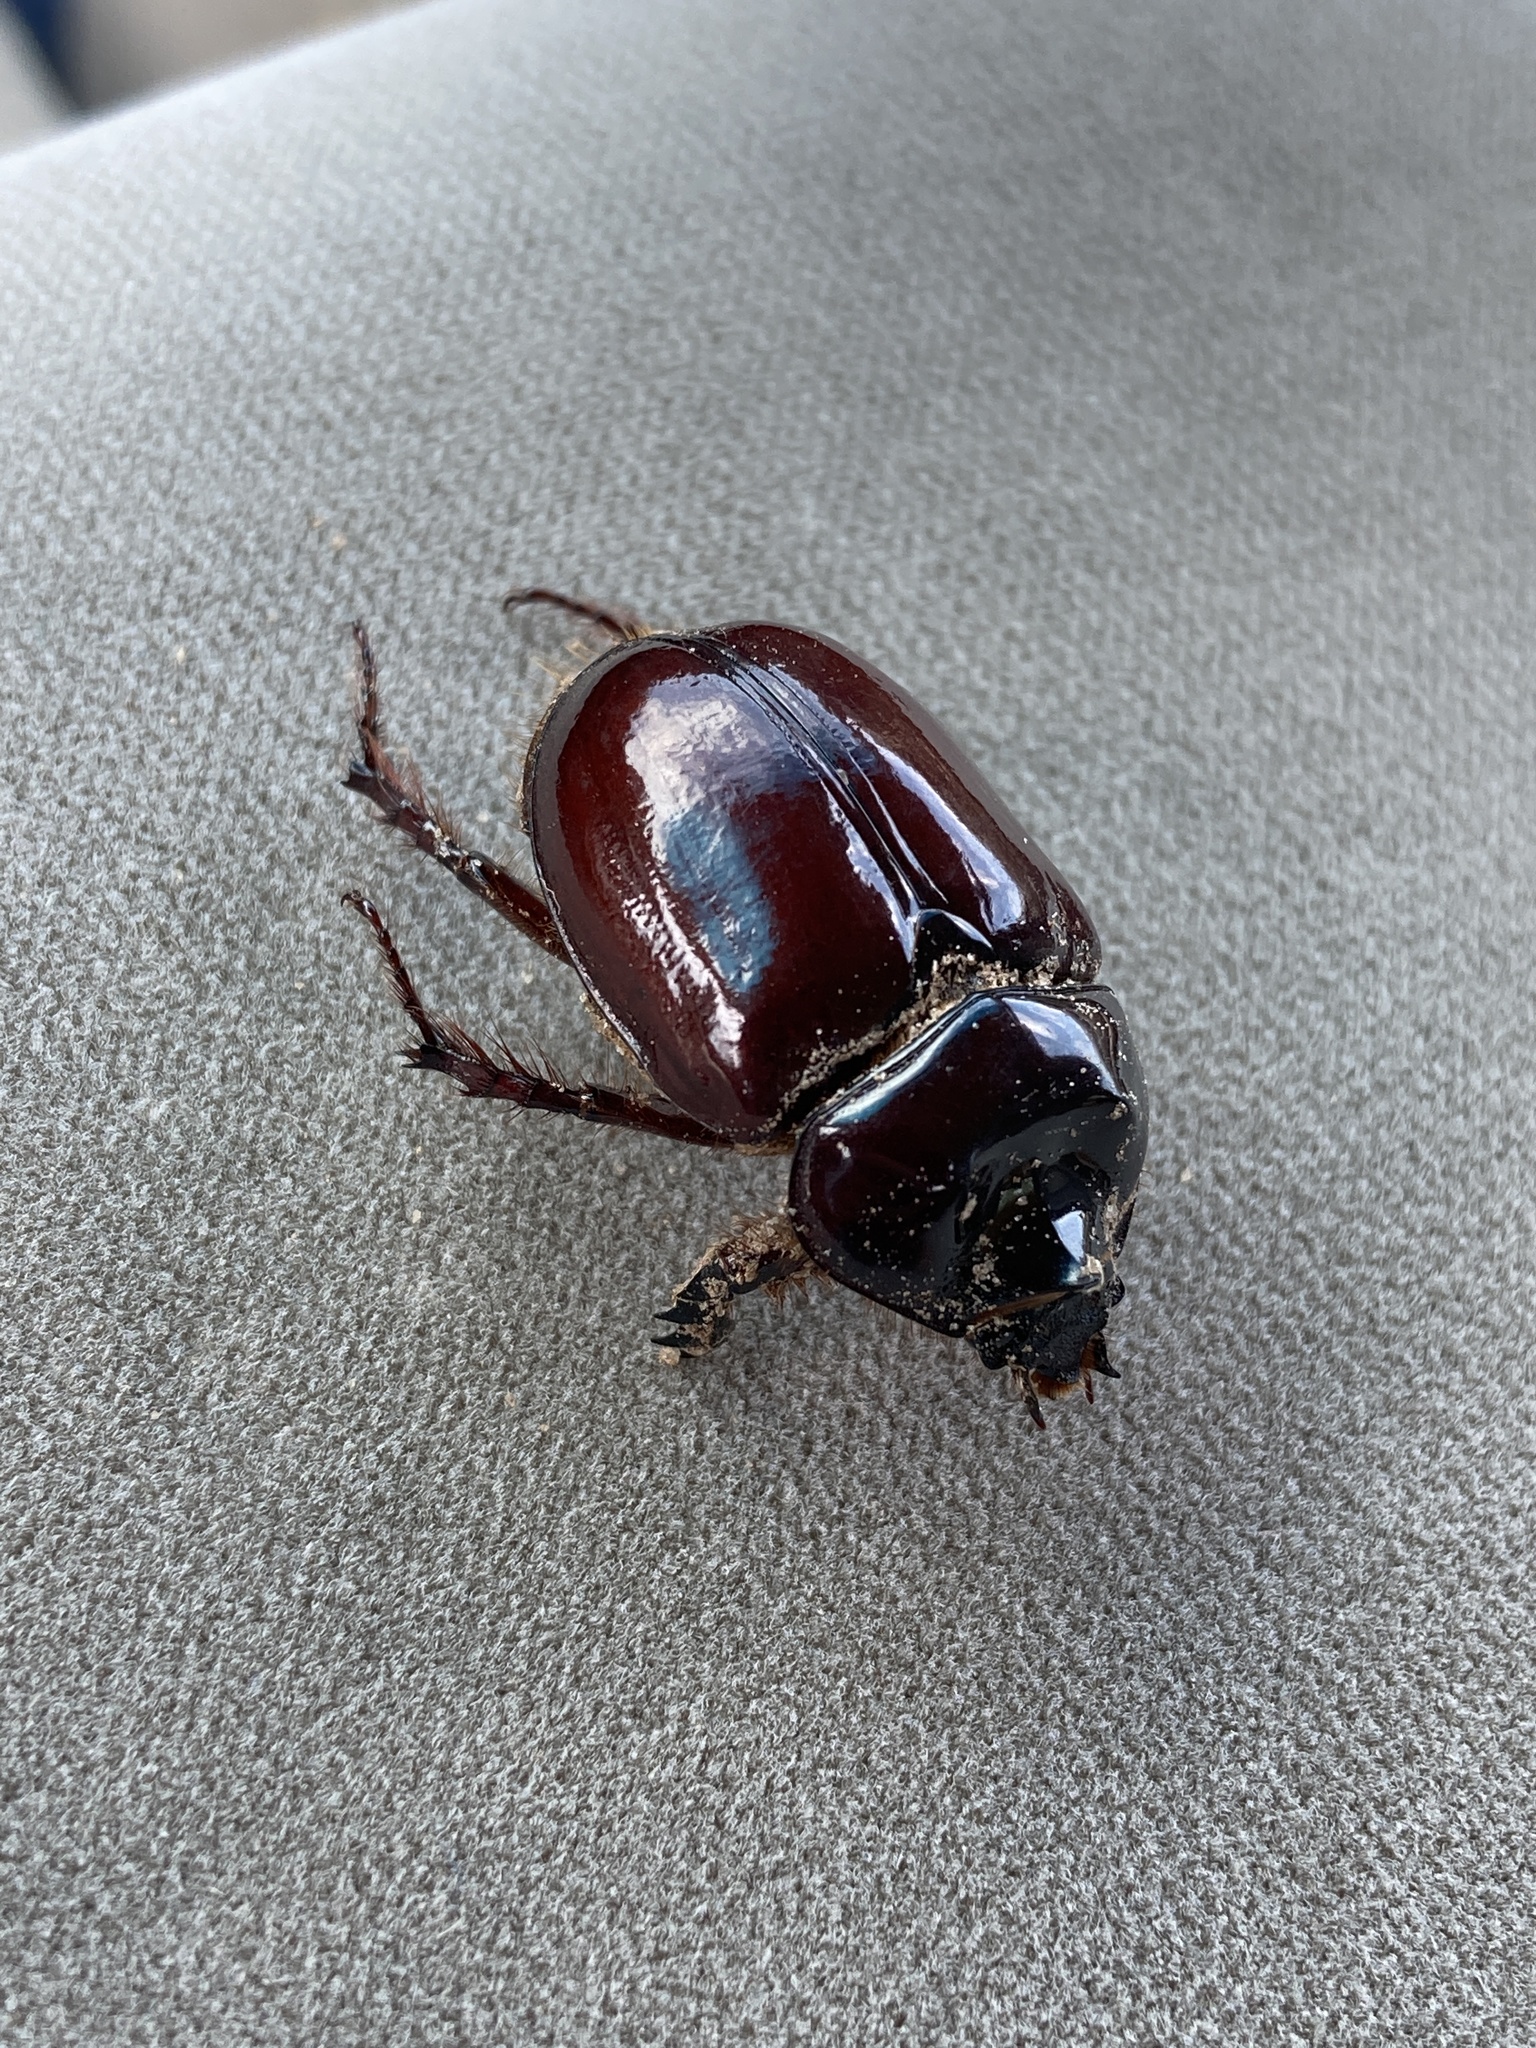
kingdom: Animalia
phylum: Arthropoda
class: Insecta
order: Coleoptera
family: Scarabaeidae
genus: Strategus
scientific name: Strategus mormon
